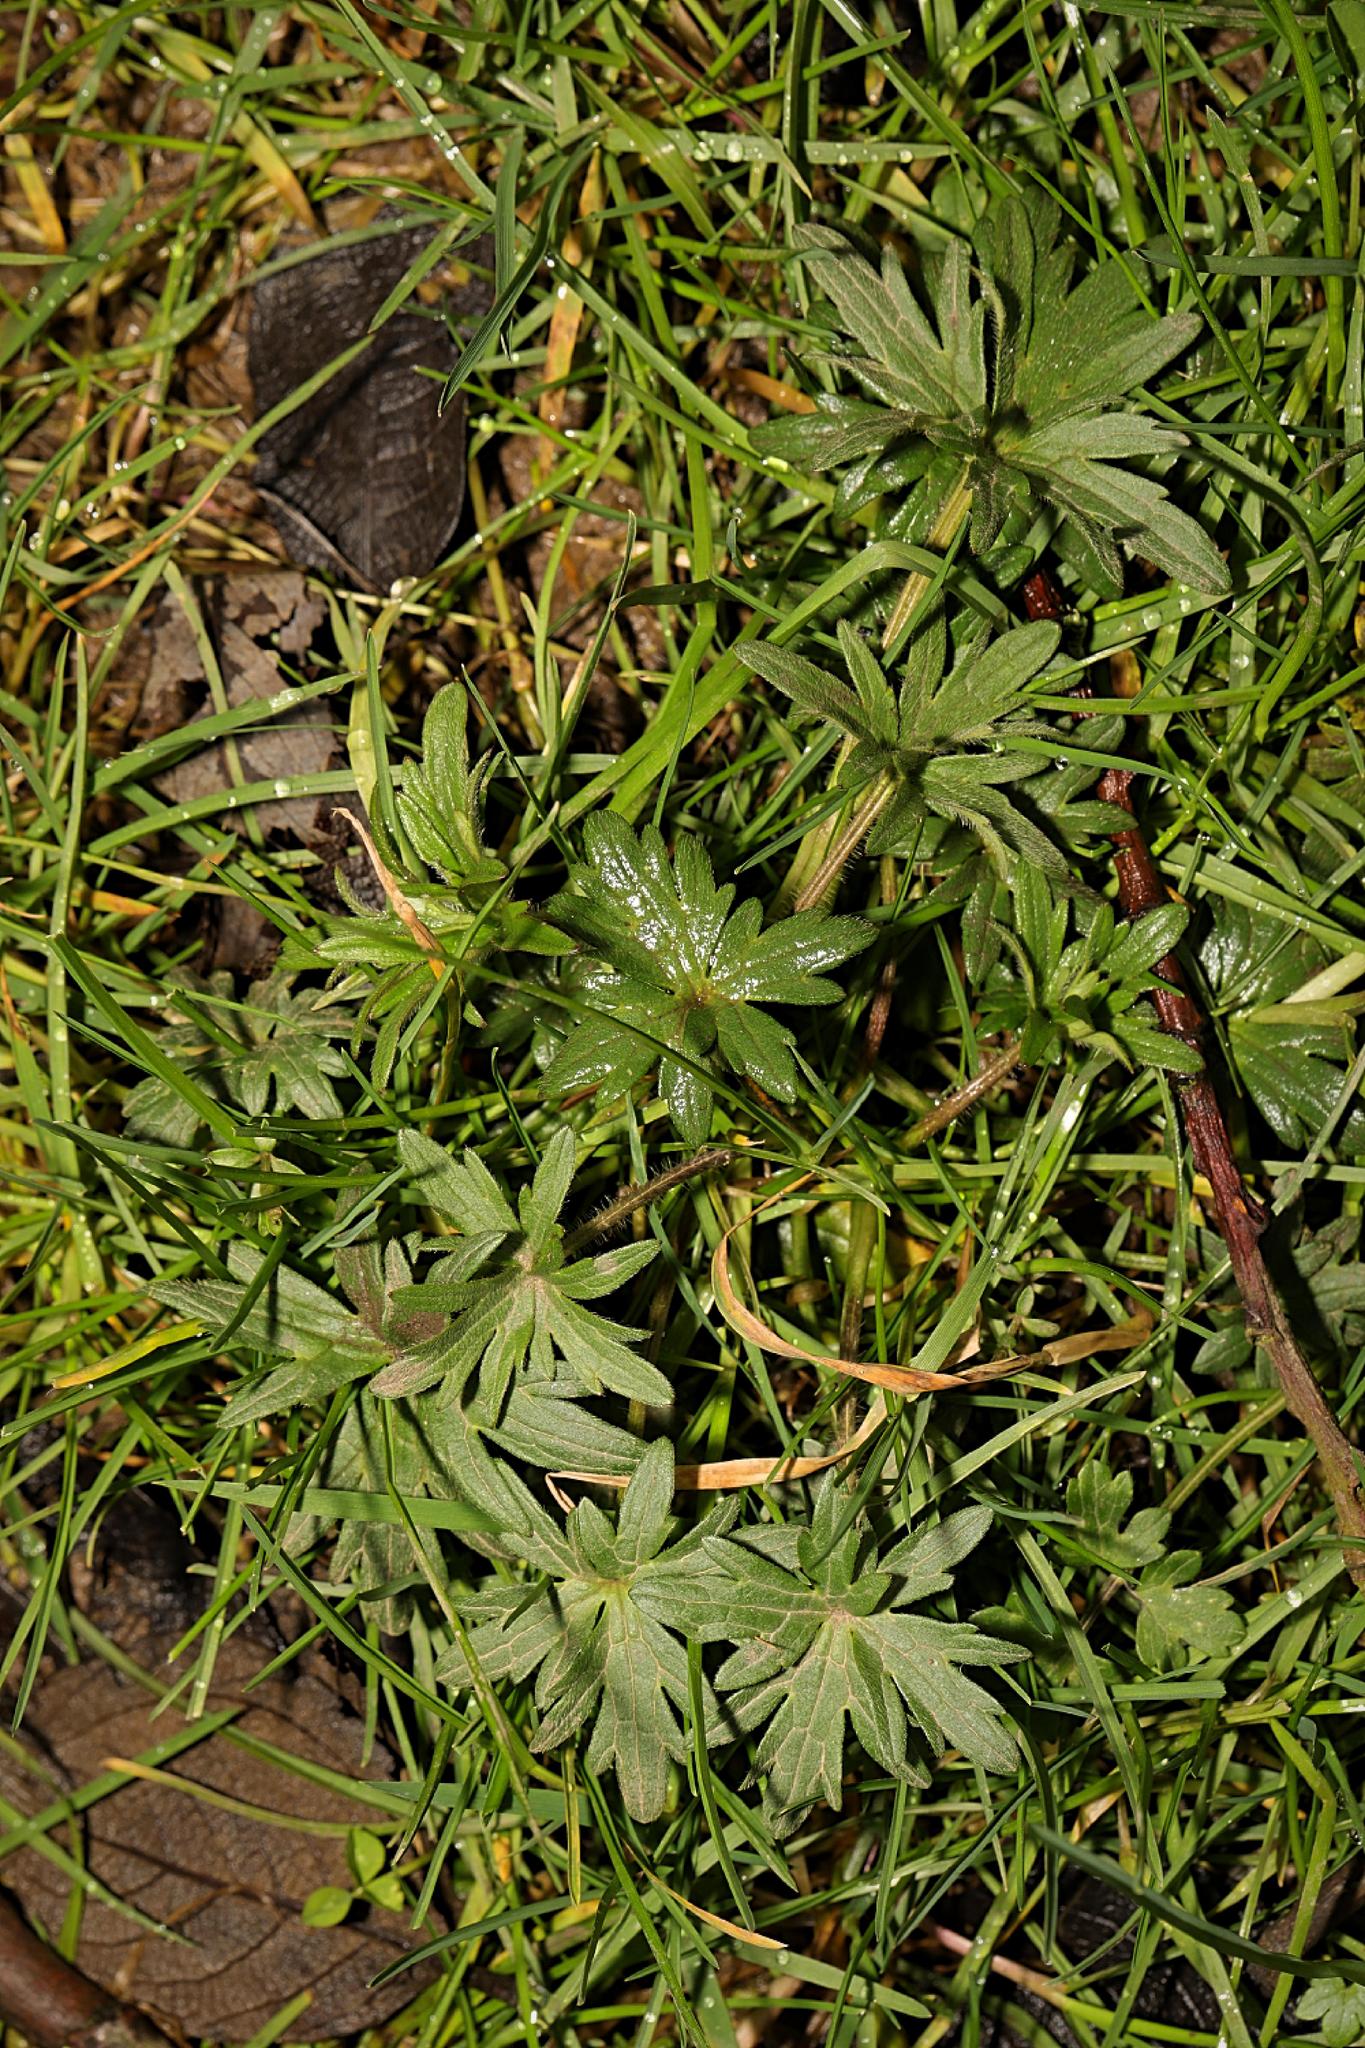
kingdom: Plantae
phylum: Tracheophyta
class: Magnoliopsida
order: Ranunculales
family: Ranunculaceae
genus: Ranunculus
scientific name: Ranunculus acris
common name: Meadow buttercup
